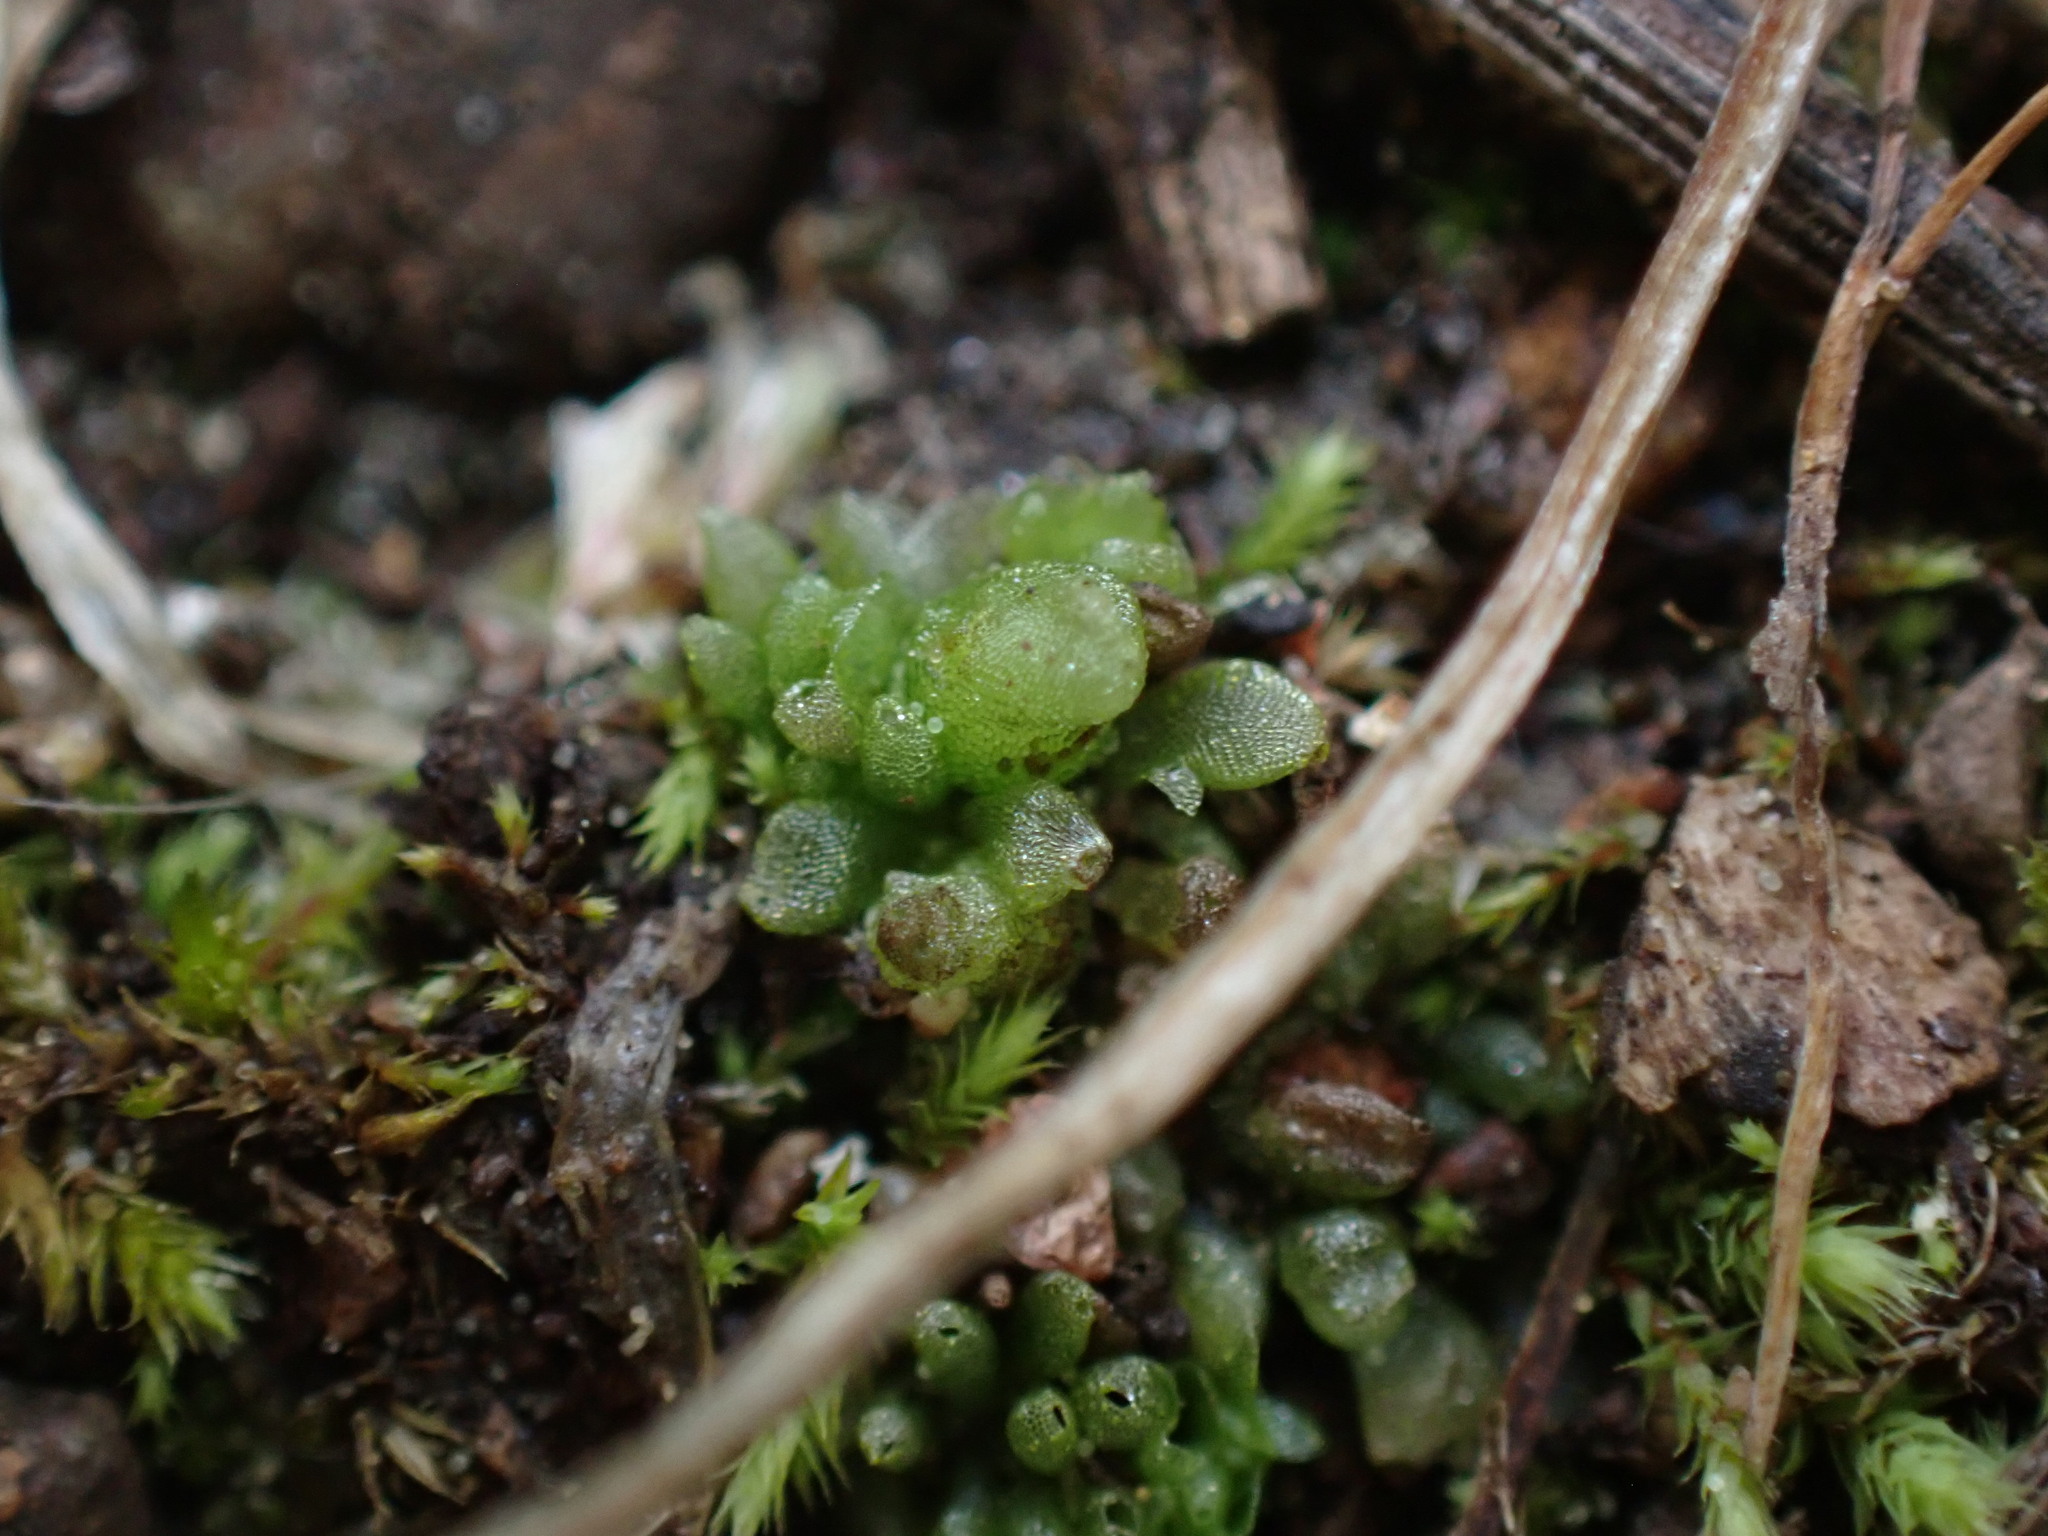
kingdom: Plantae
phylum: Marchantiophyta
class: Marchantiopsida
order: Sphaerocarpales
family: Sphaerocarpaceae
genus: Sphaerocarpos
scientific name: Sphaerocarpos texanus
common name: Texas balloonwort
